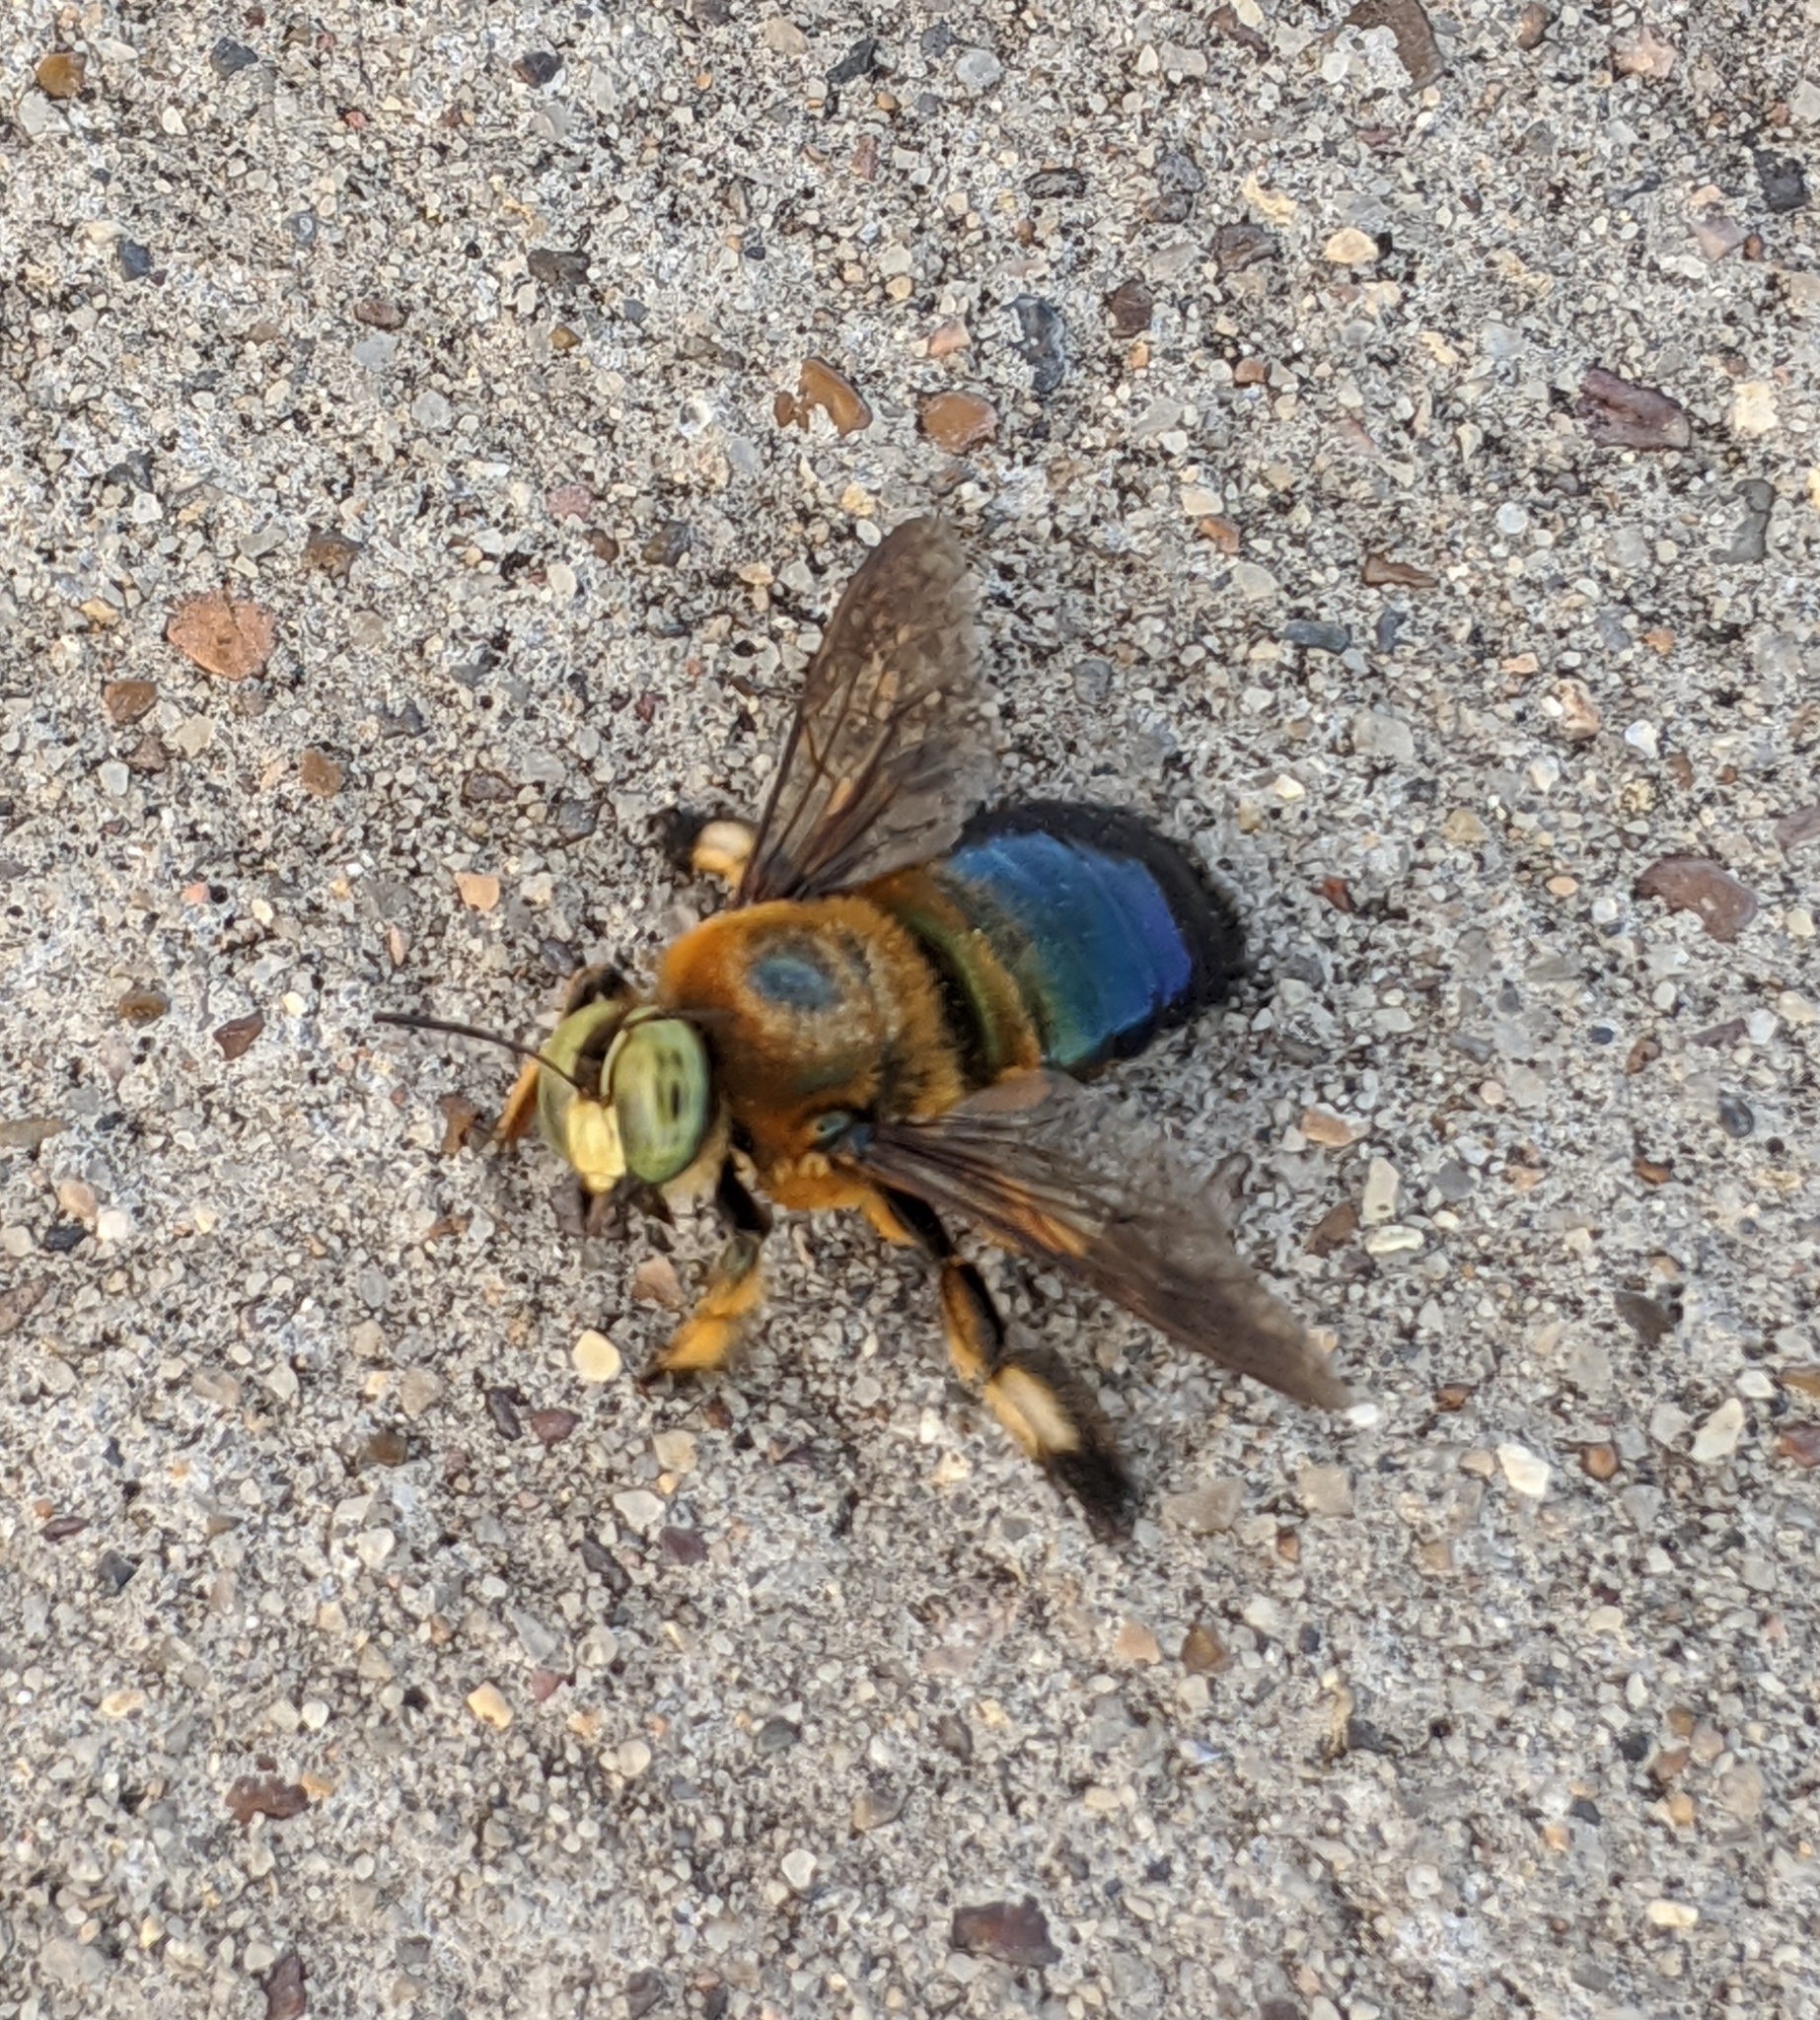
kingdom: Animalia
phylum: Arthropoda
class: Insecta
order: Hymenoptera
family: Apidae
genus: Xylocopa
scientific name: Xylocopa micans
